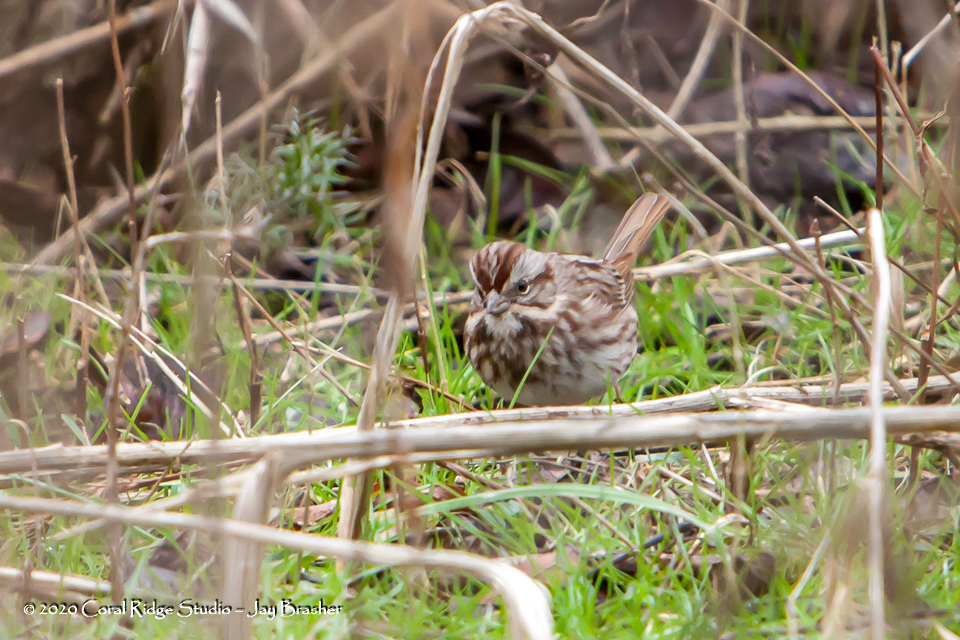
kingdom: Animalia
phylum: Chordata
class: Aves
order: Passeriformes
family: Passerellidae
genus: Melospiza
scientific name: Melospiza melodia
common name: Song sparrow
